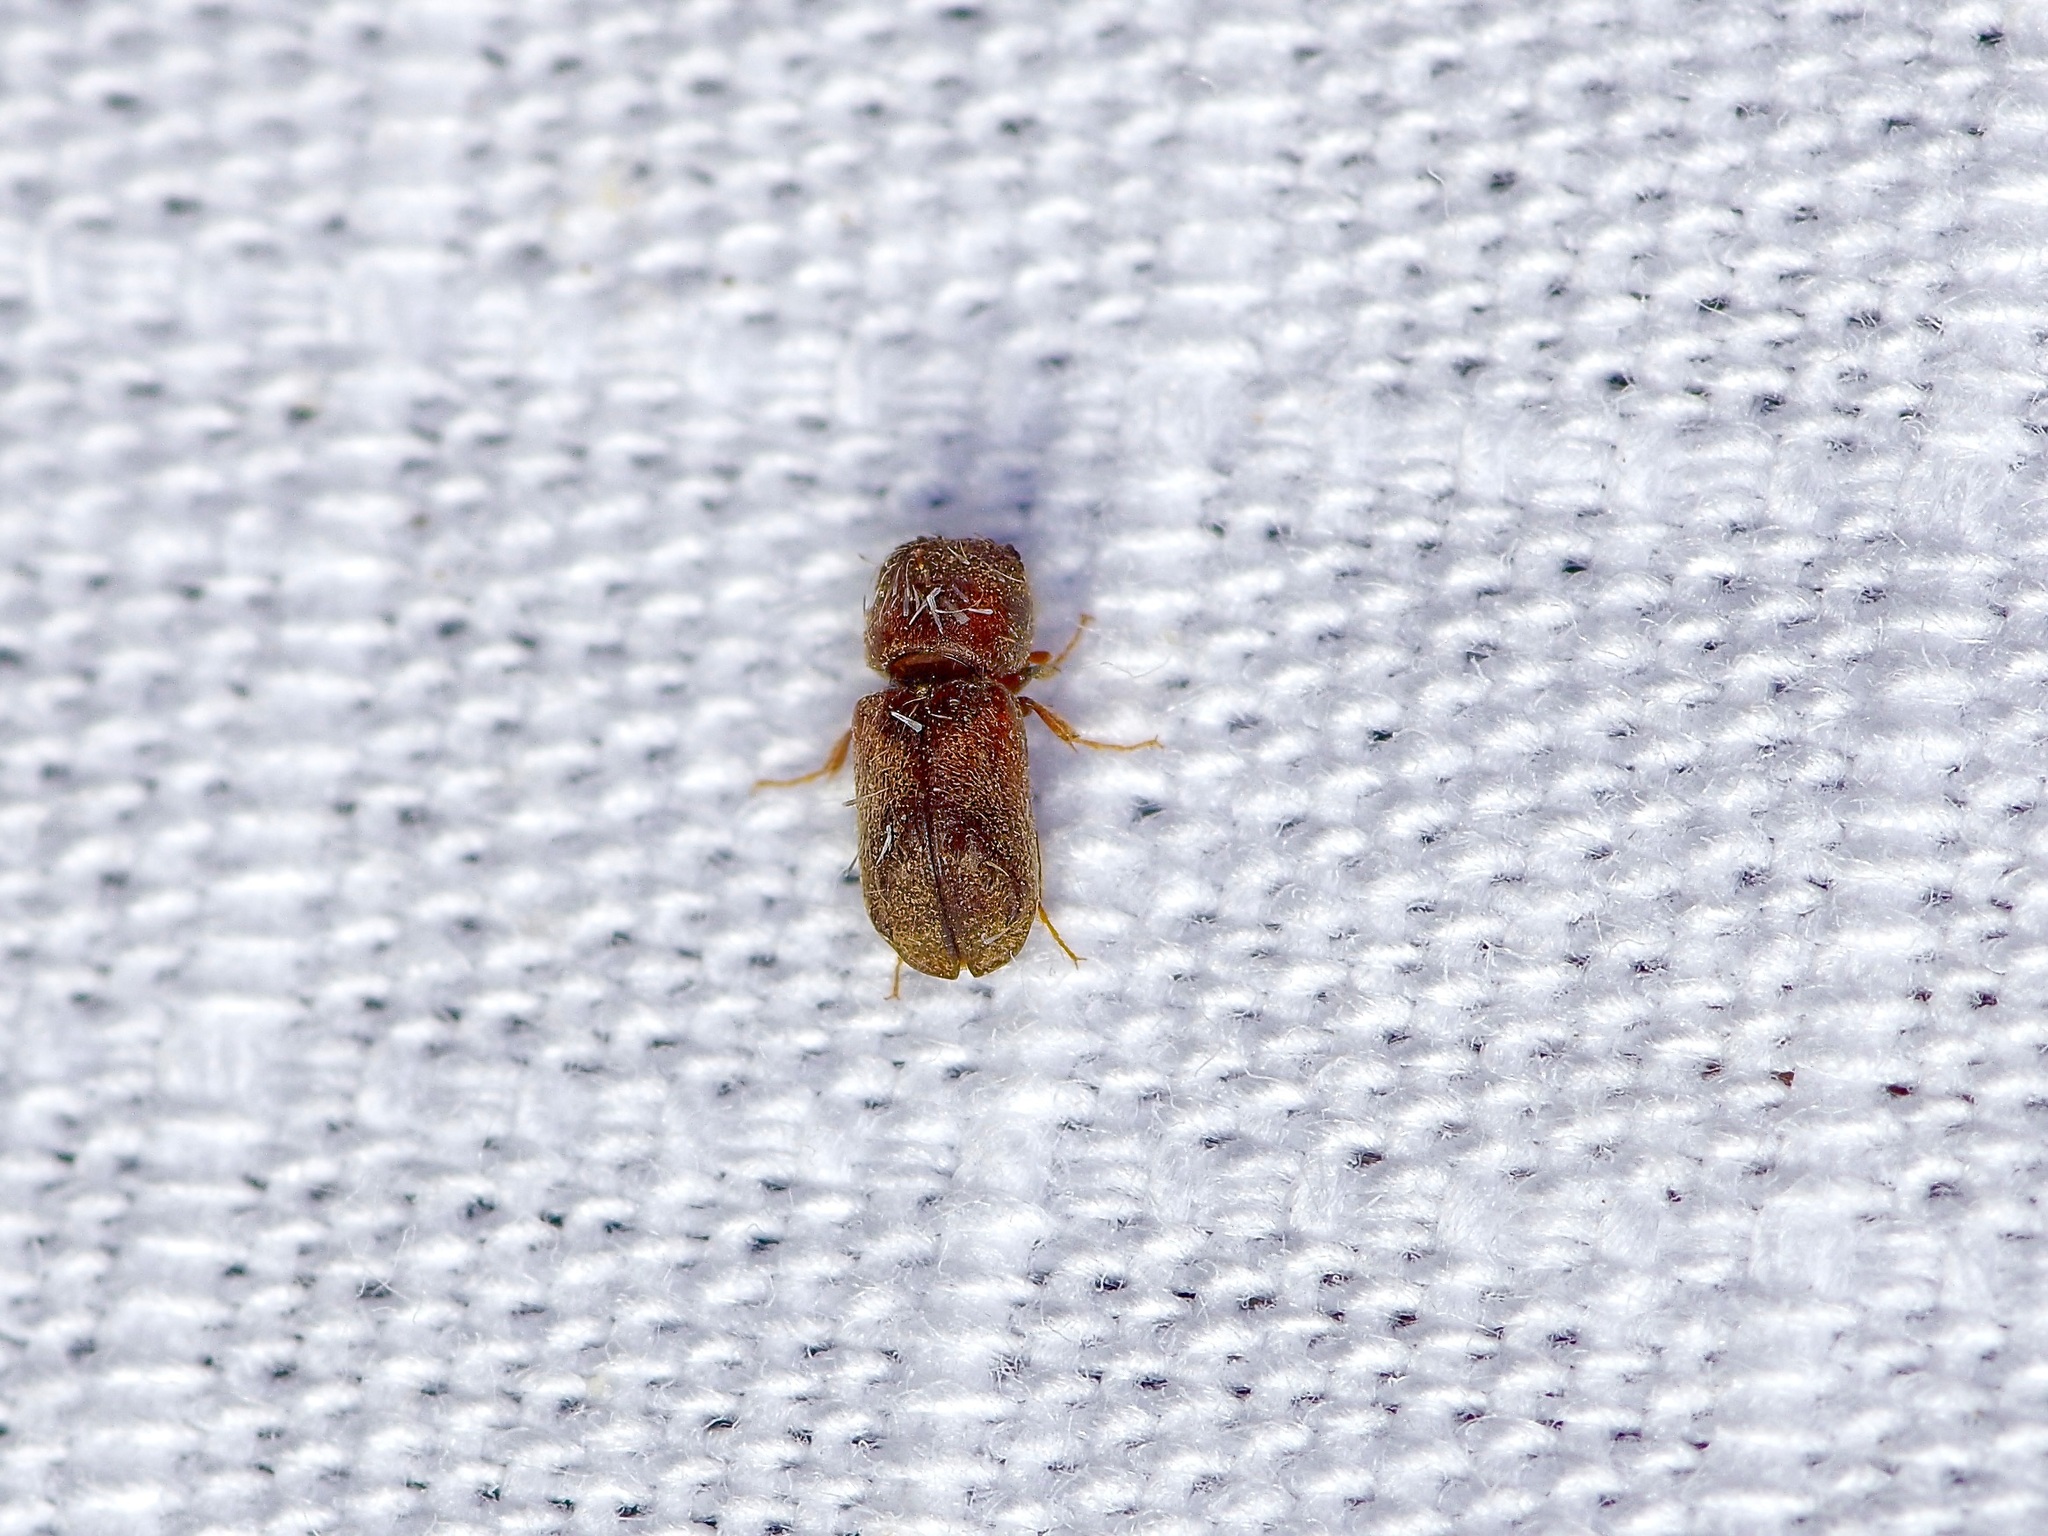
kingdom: Animalia
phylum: Arthropoda
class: Insecta
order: Coleoptera
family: Bostrichidae
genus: Xylobiops
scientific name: Xylobiops texanus
